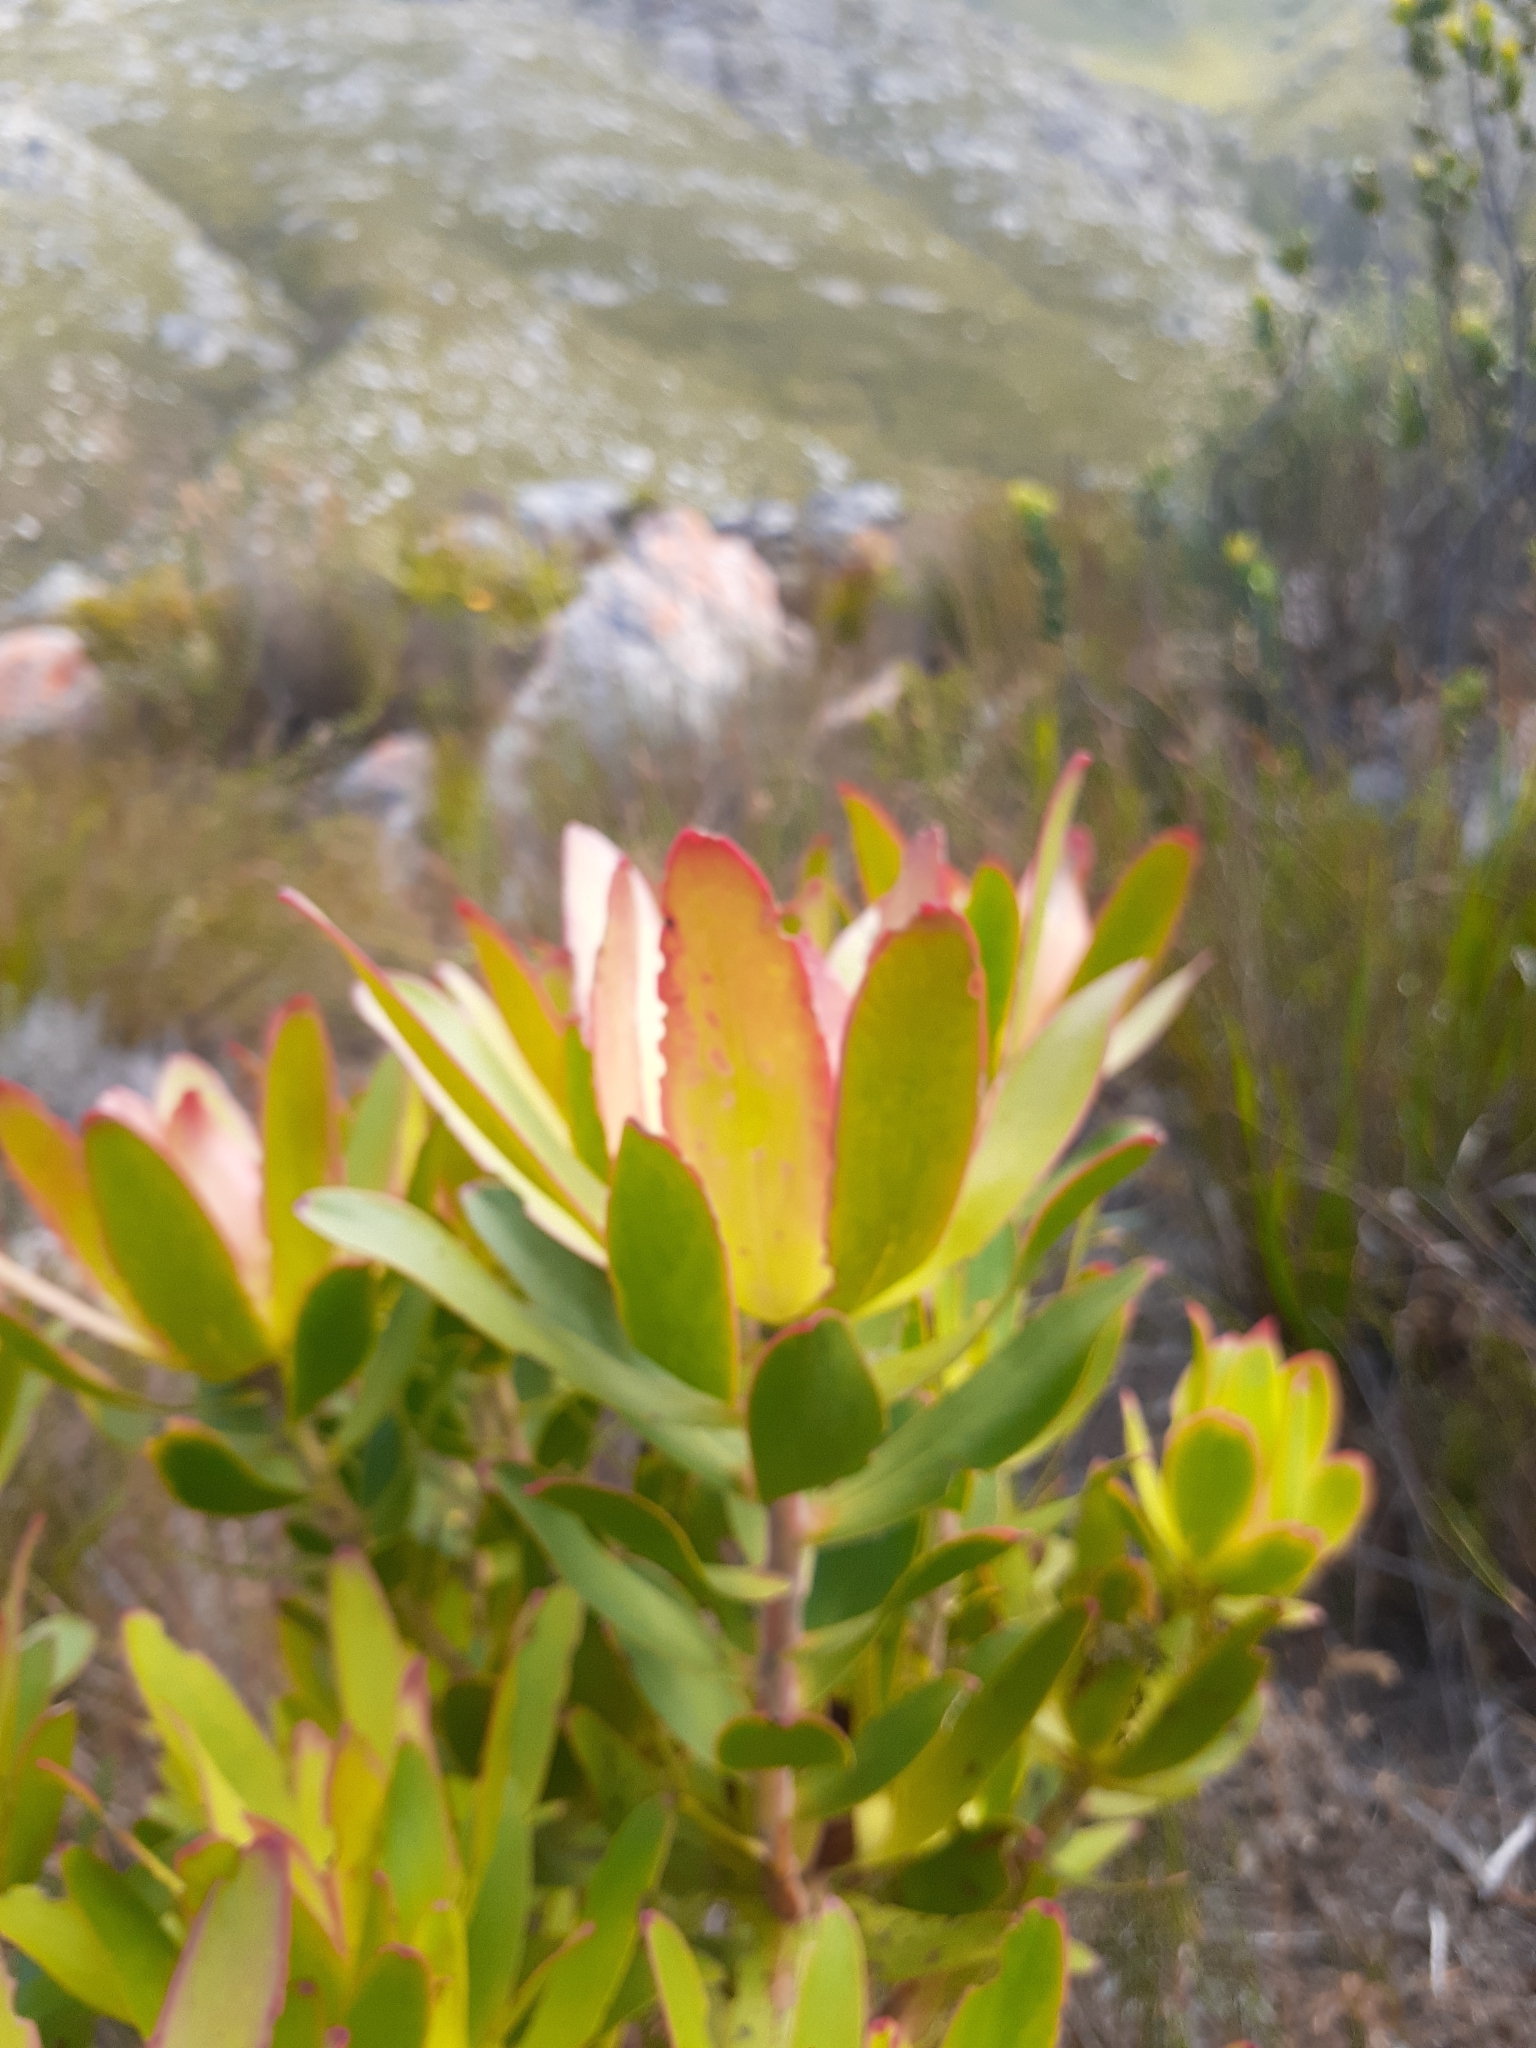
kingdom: Plantae
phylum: Tracheophyta
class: Magnoliopsida
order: Proteales
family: Proteaceae
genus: Leucadendron
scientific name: Leucadendron gandogeri
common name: Broad-leaf conebush
